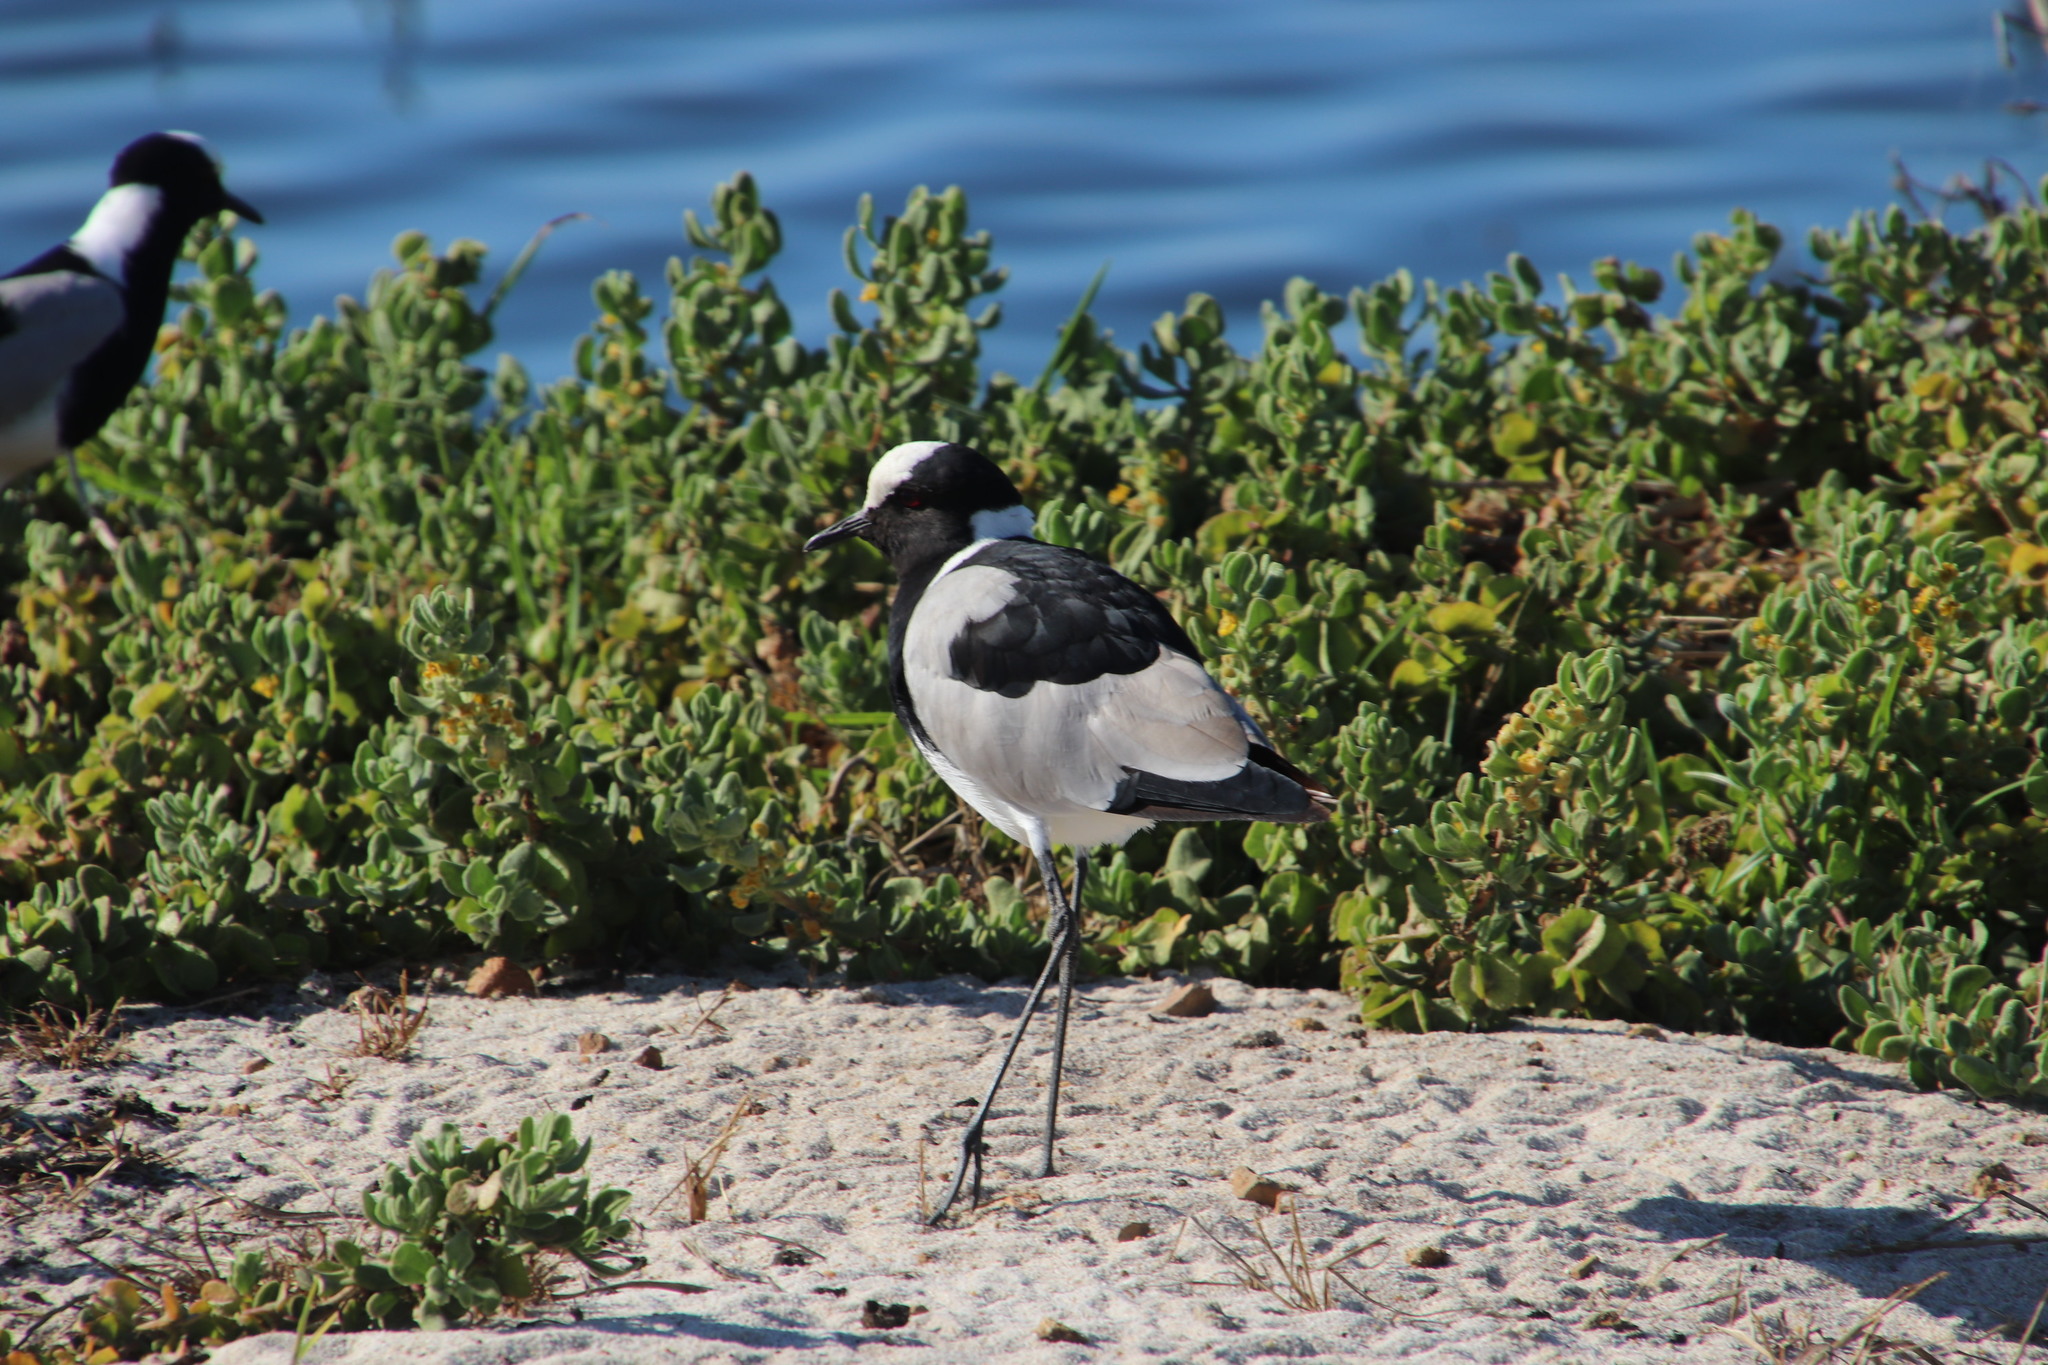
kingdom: Animalia
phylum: Chordata
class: Aves
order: Charadriiformes
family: Charadriidae
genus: Vanellus
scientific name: Vanellus armatus
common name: Blacksmith lapwing
